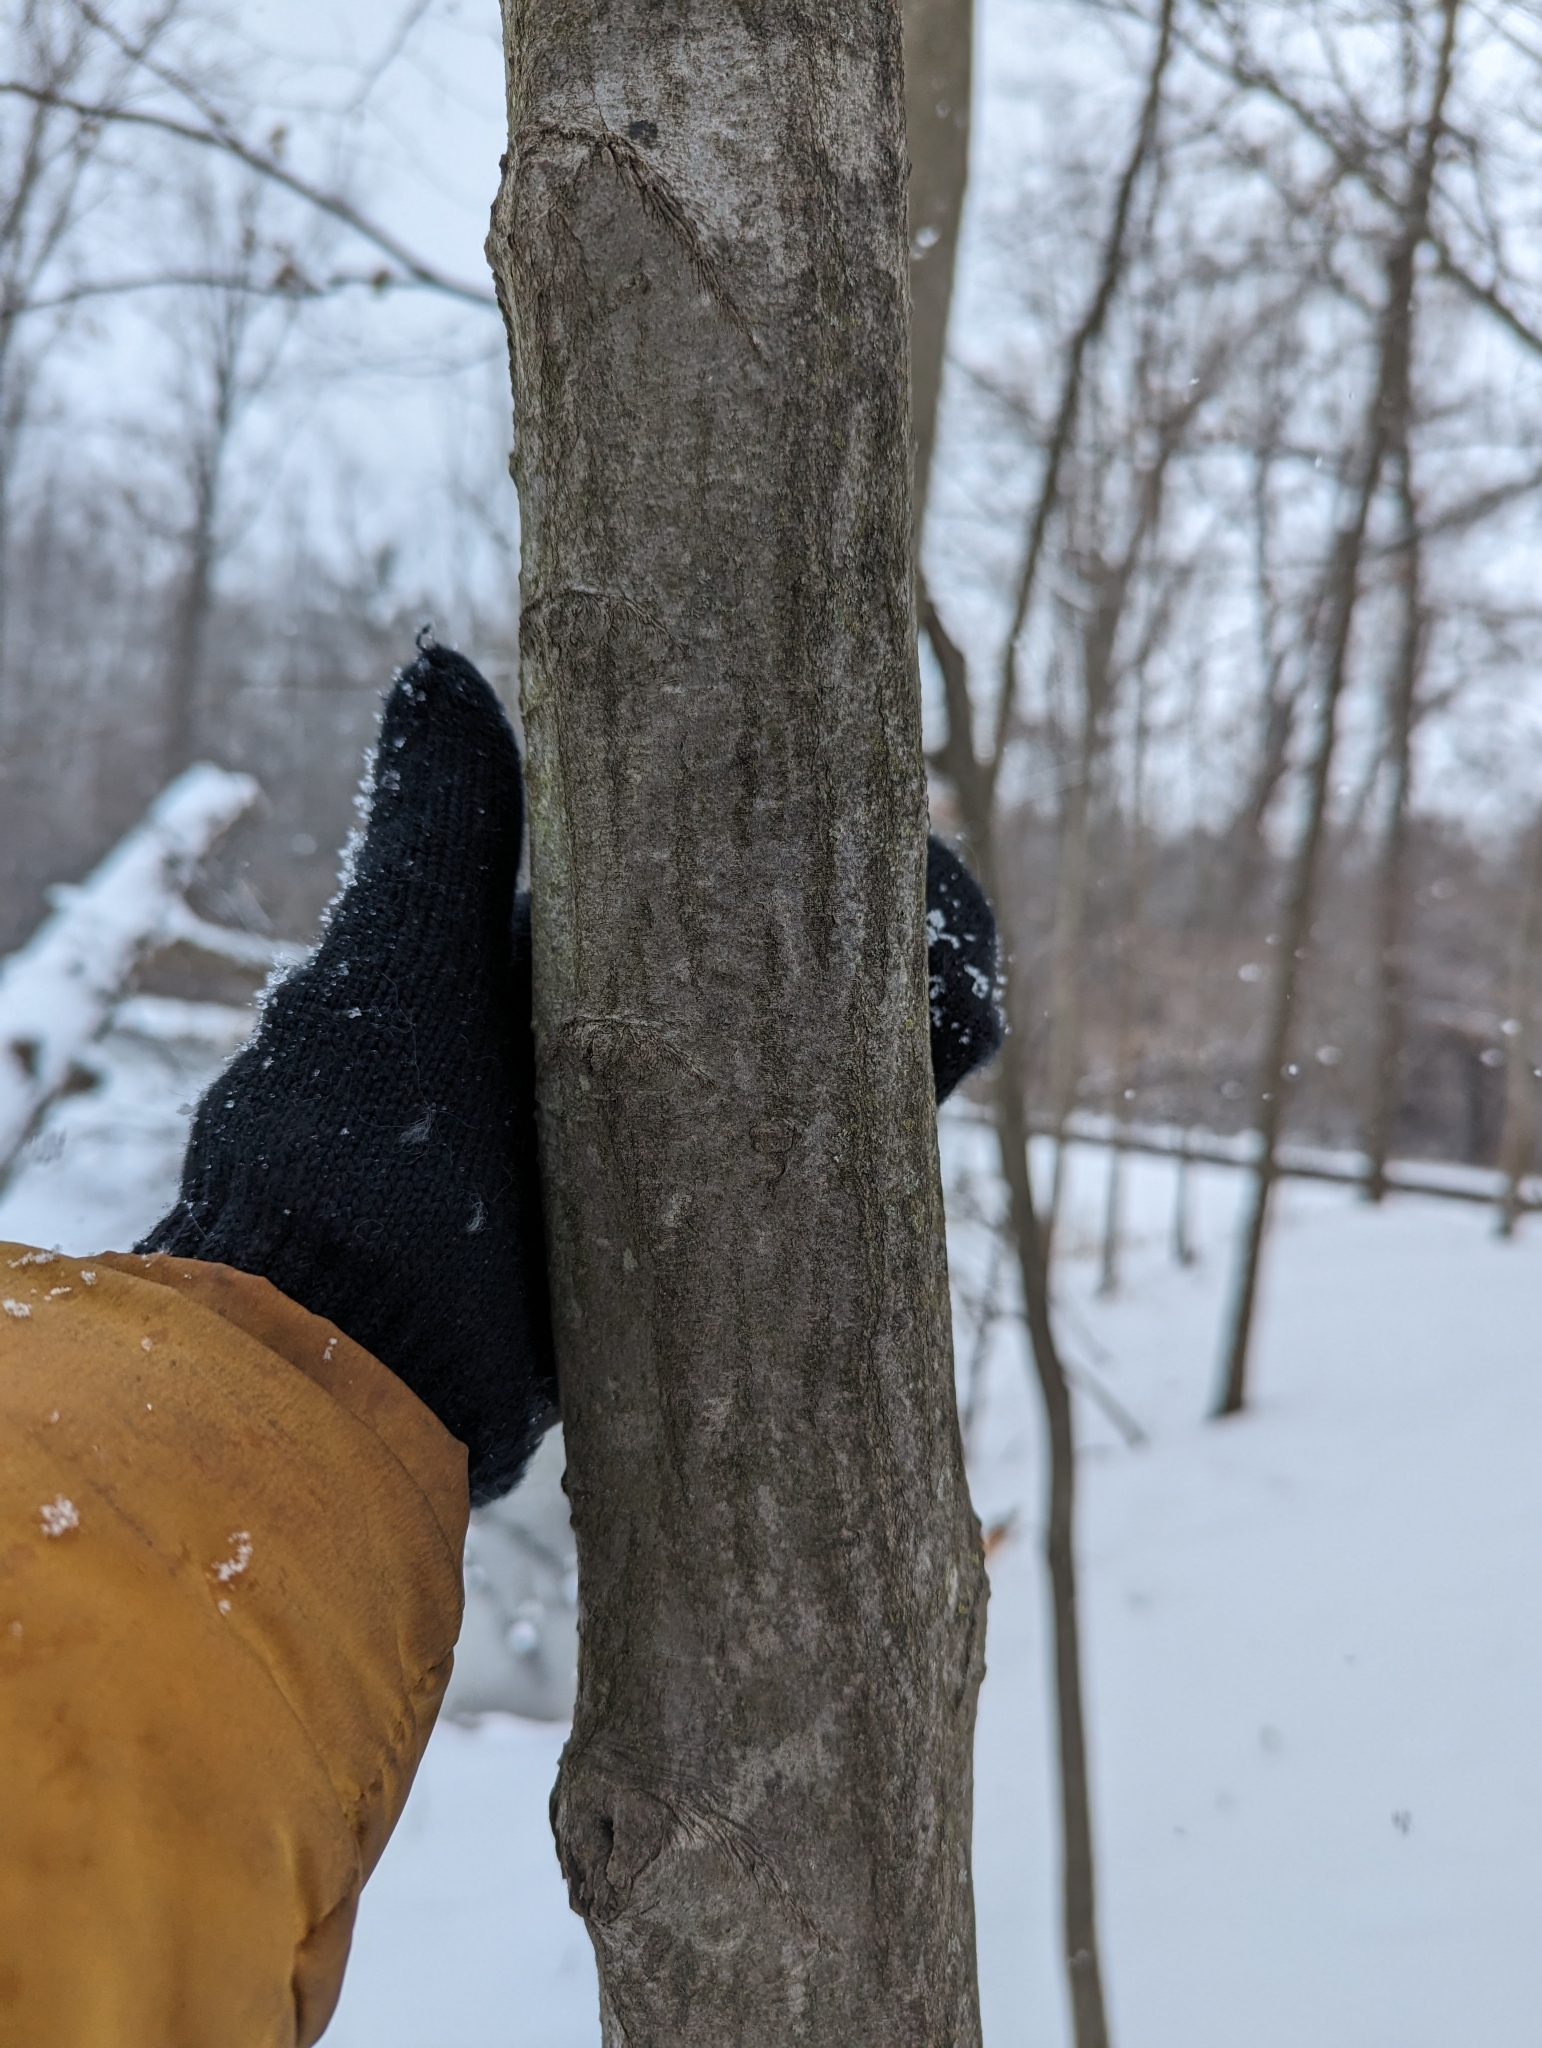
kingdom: Plantae
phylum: Tracheophyta
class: Magnoliopsida
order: Fagales
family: Betulaceae
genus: Carpinus
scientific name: Carpinus caroliniana
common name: American hornbeam
